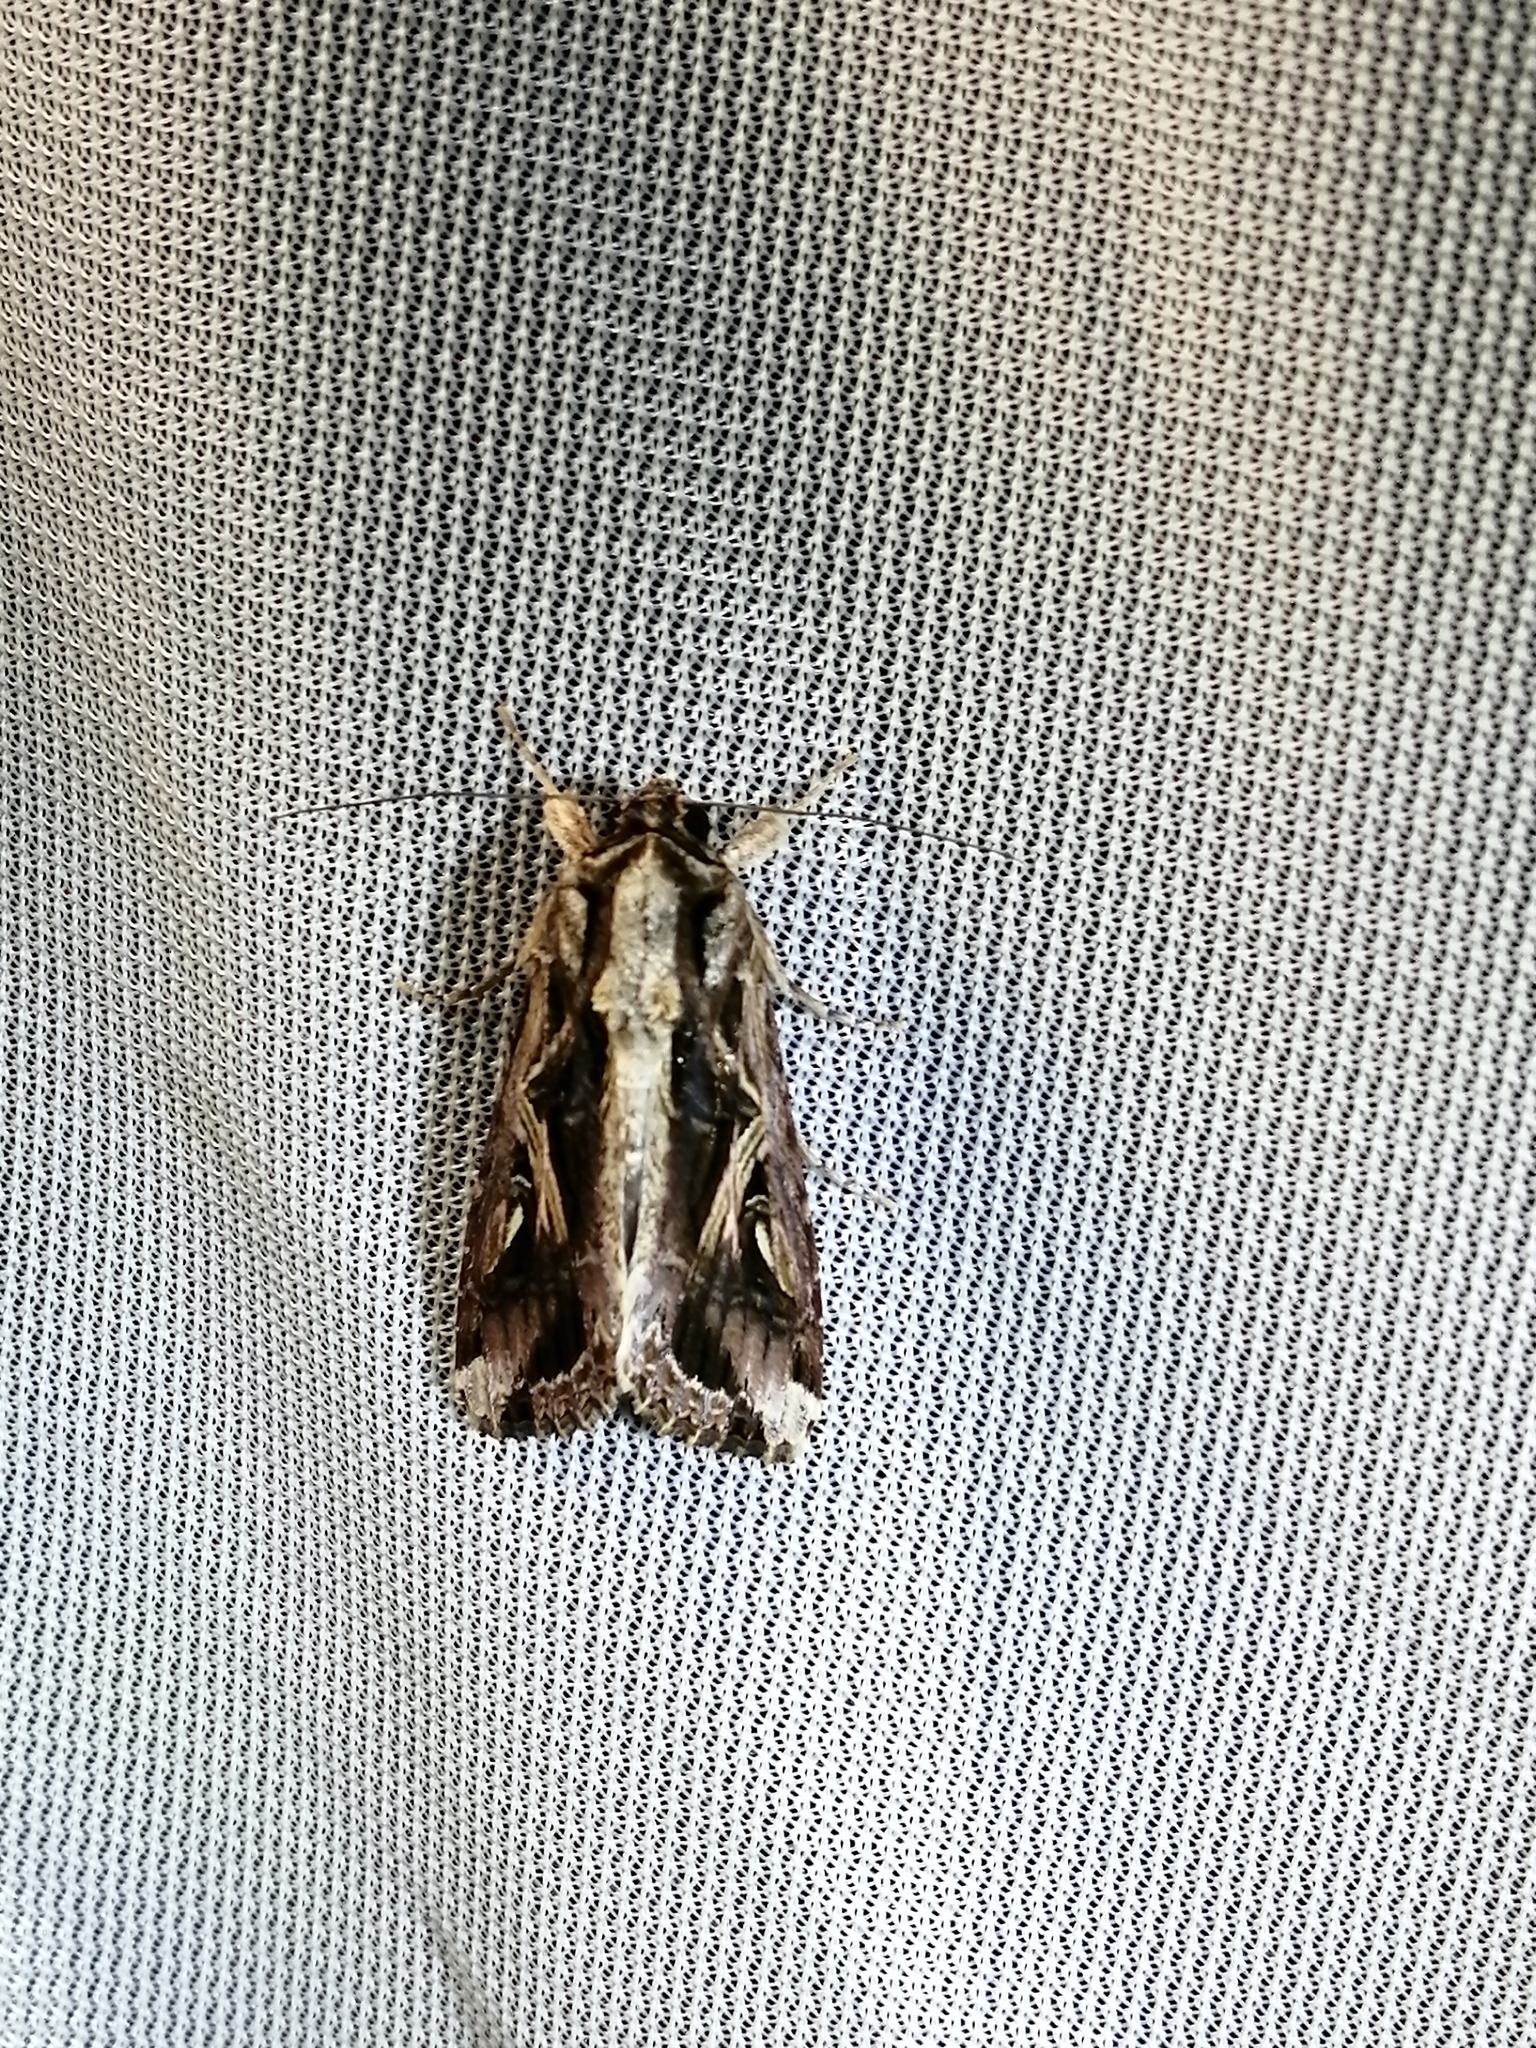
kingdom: Animalia
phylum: Arthropoda
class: Insecta
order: Lepidoptera
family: Noctuidae
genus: Spodoptera
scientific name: Spodoptera dolichos
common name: Sweetpotato armyworm
